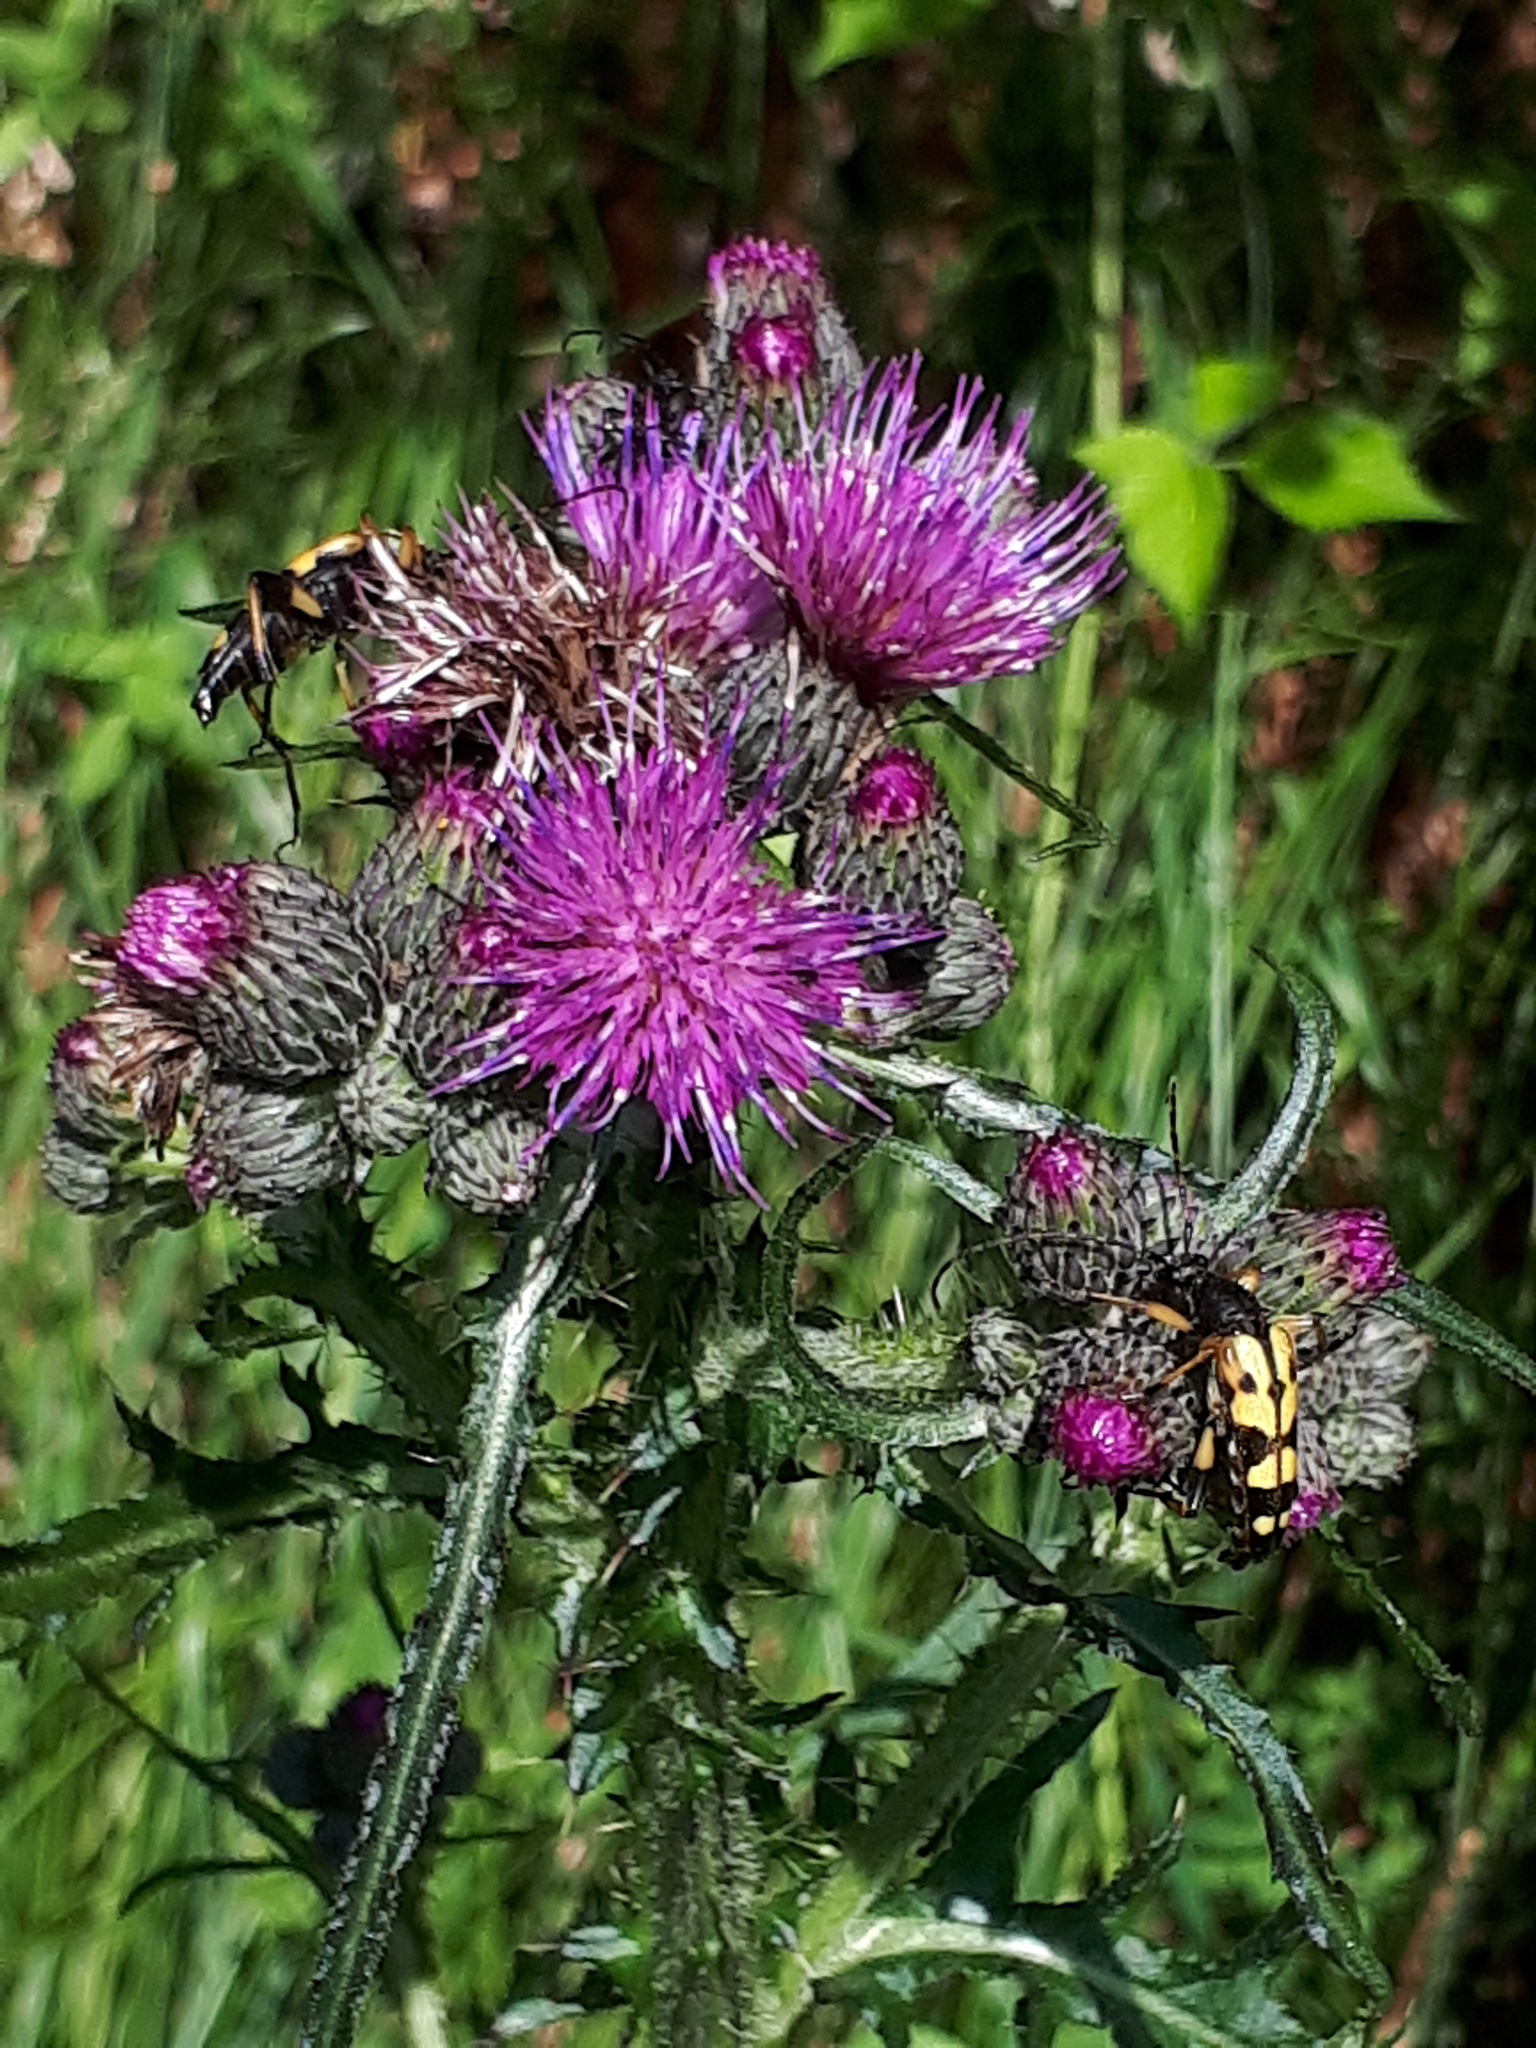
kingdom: Animalia
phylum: Arthropoda
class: Insecta
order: Coleoptera
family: Cerambycidae
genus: Rutpela
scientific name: Rutpela maculata
